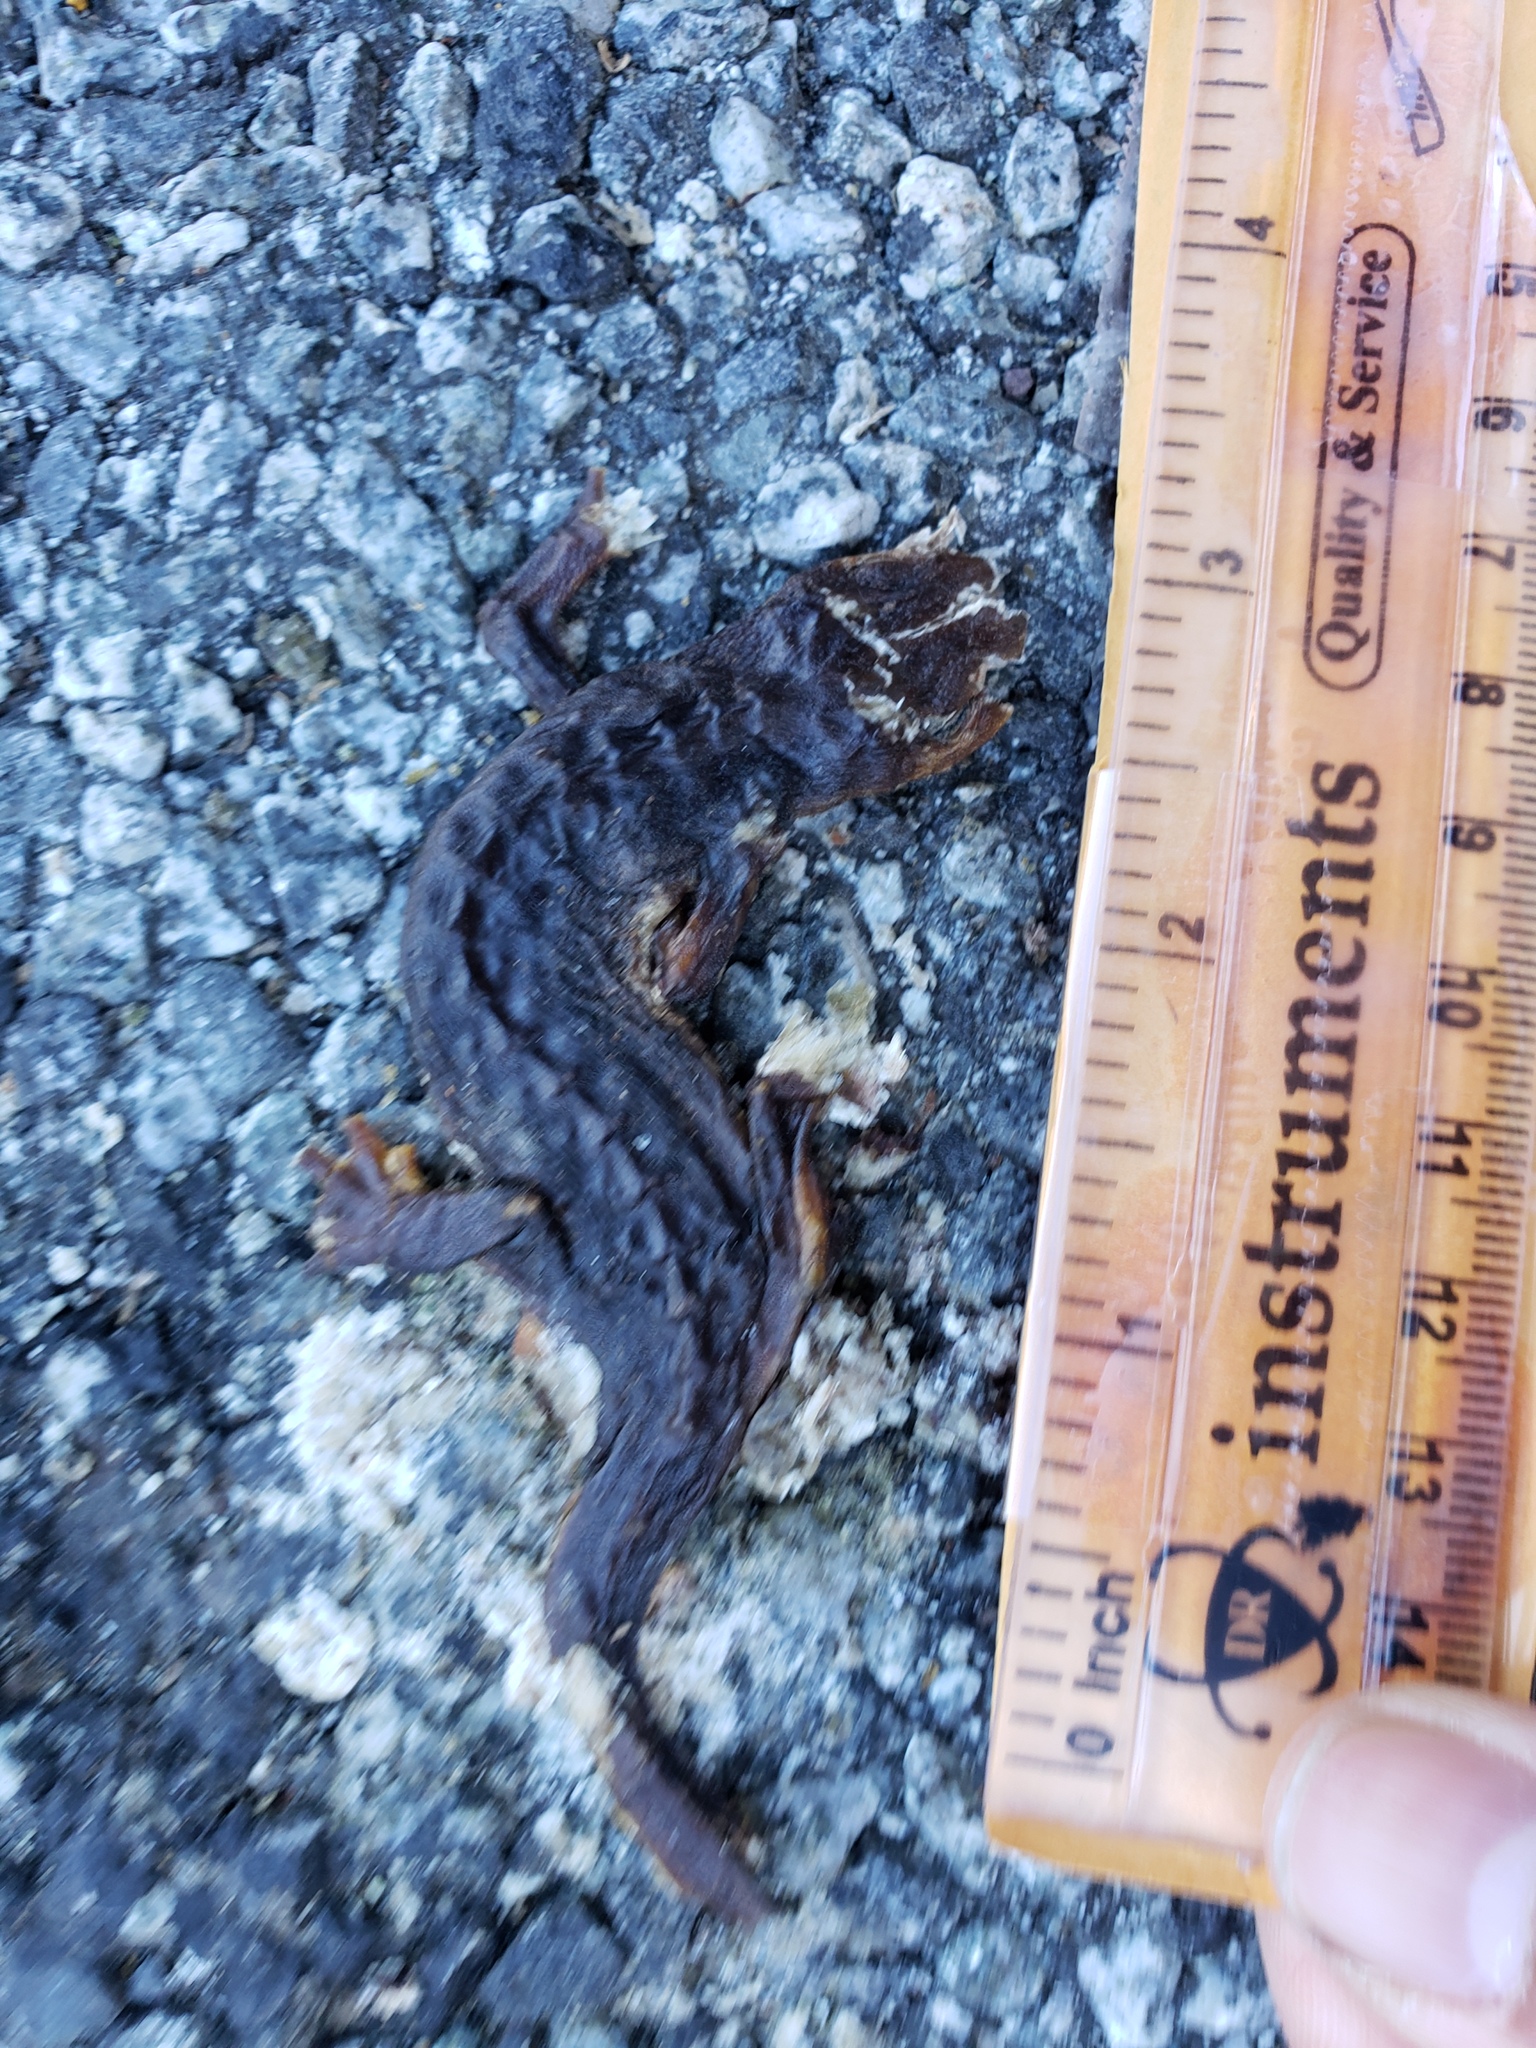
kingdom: Animalia
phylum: Chordata
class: Amphibia
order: Caudata
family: Salamandridae
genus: Taricha
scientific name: Taricha
